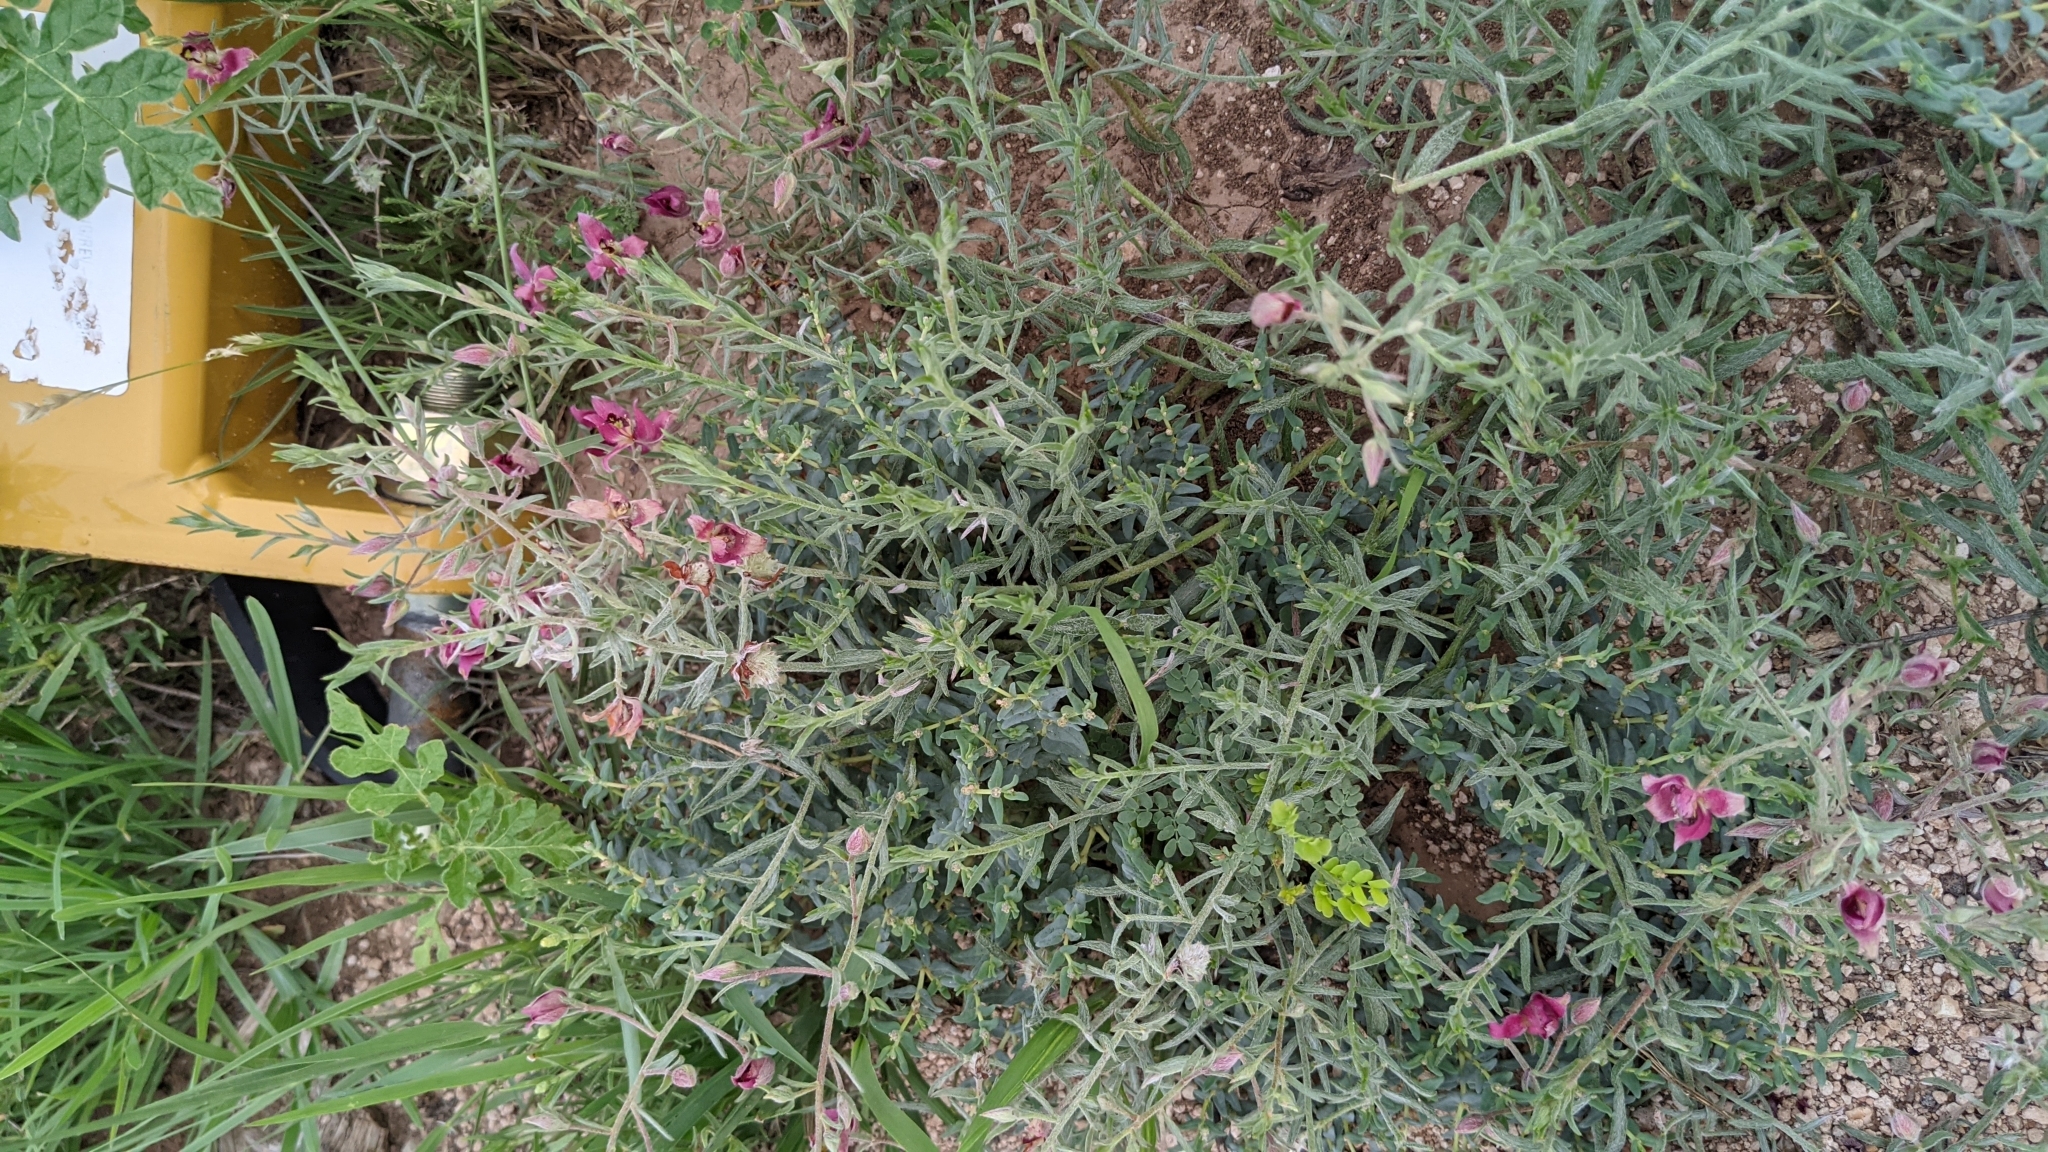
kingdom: Plantae
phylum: Tracheophyta
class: Magnoliopsida
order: Zygophyllales
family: Krameriaceae
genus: Krameria
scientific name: Krameria lanceolata
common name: Ratany
